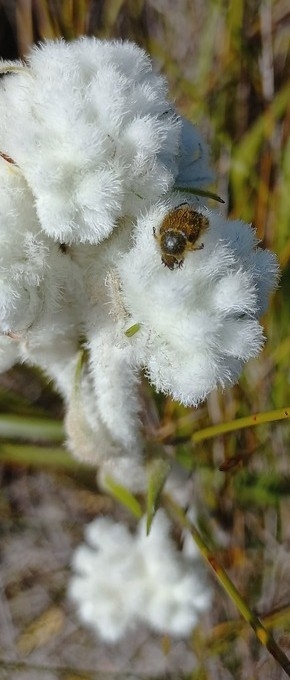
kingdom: Plantae
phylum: Tracheophyta
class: Liliopsida
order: Asparagales
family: Lanariaceae
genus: Lanaria
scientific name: Lanaria lanata
